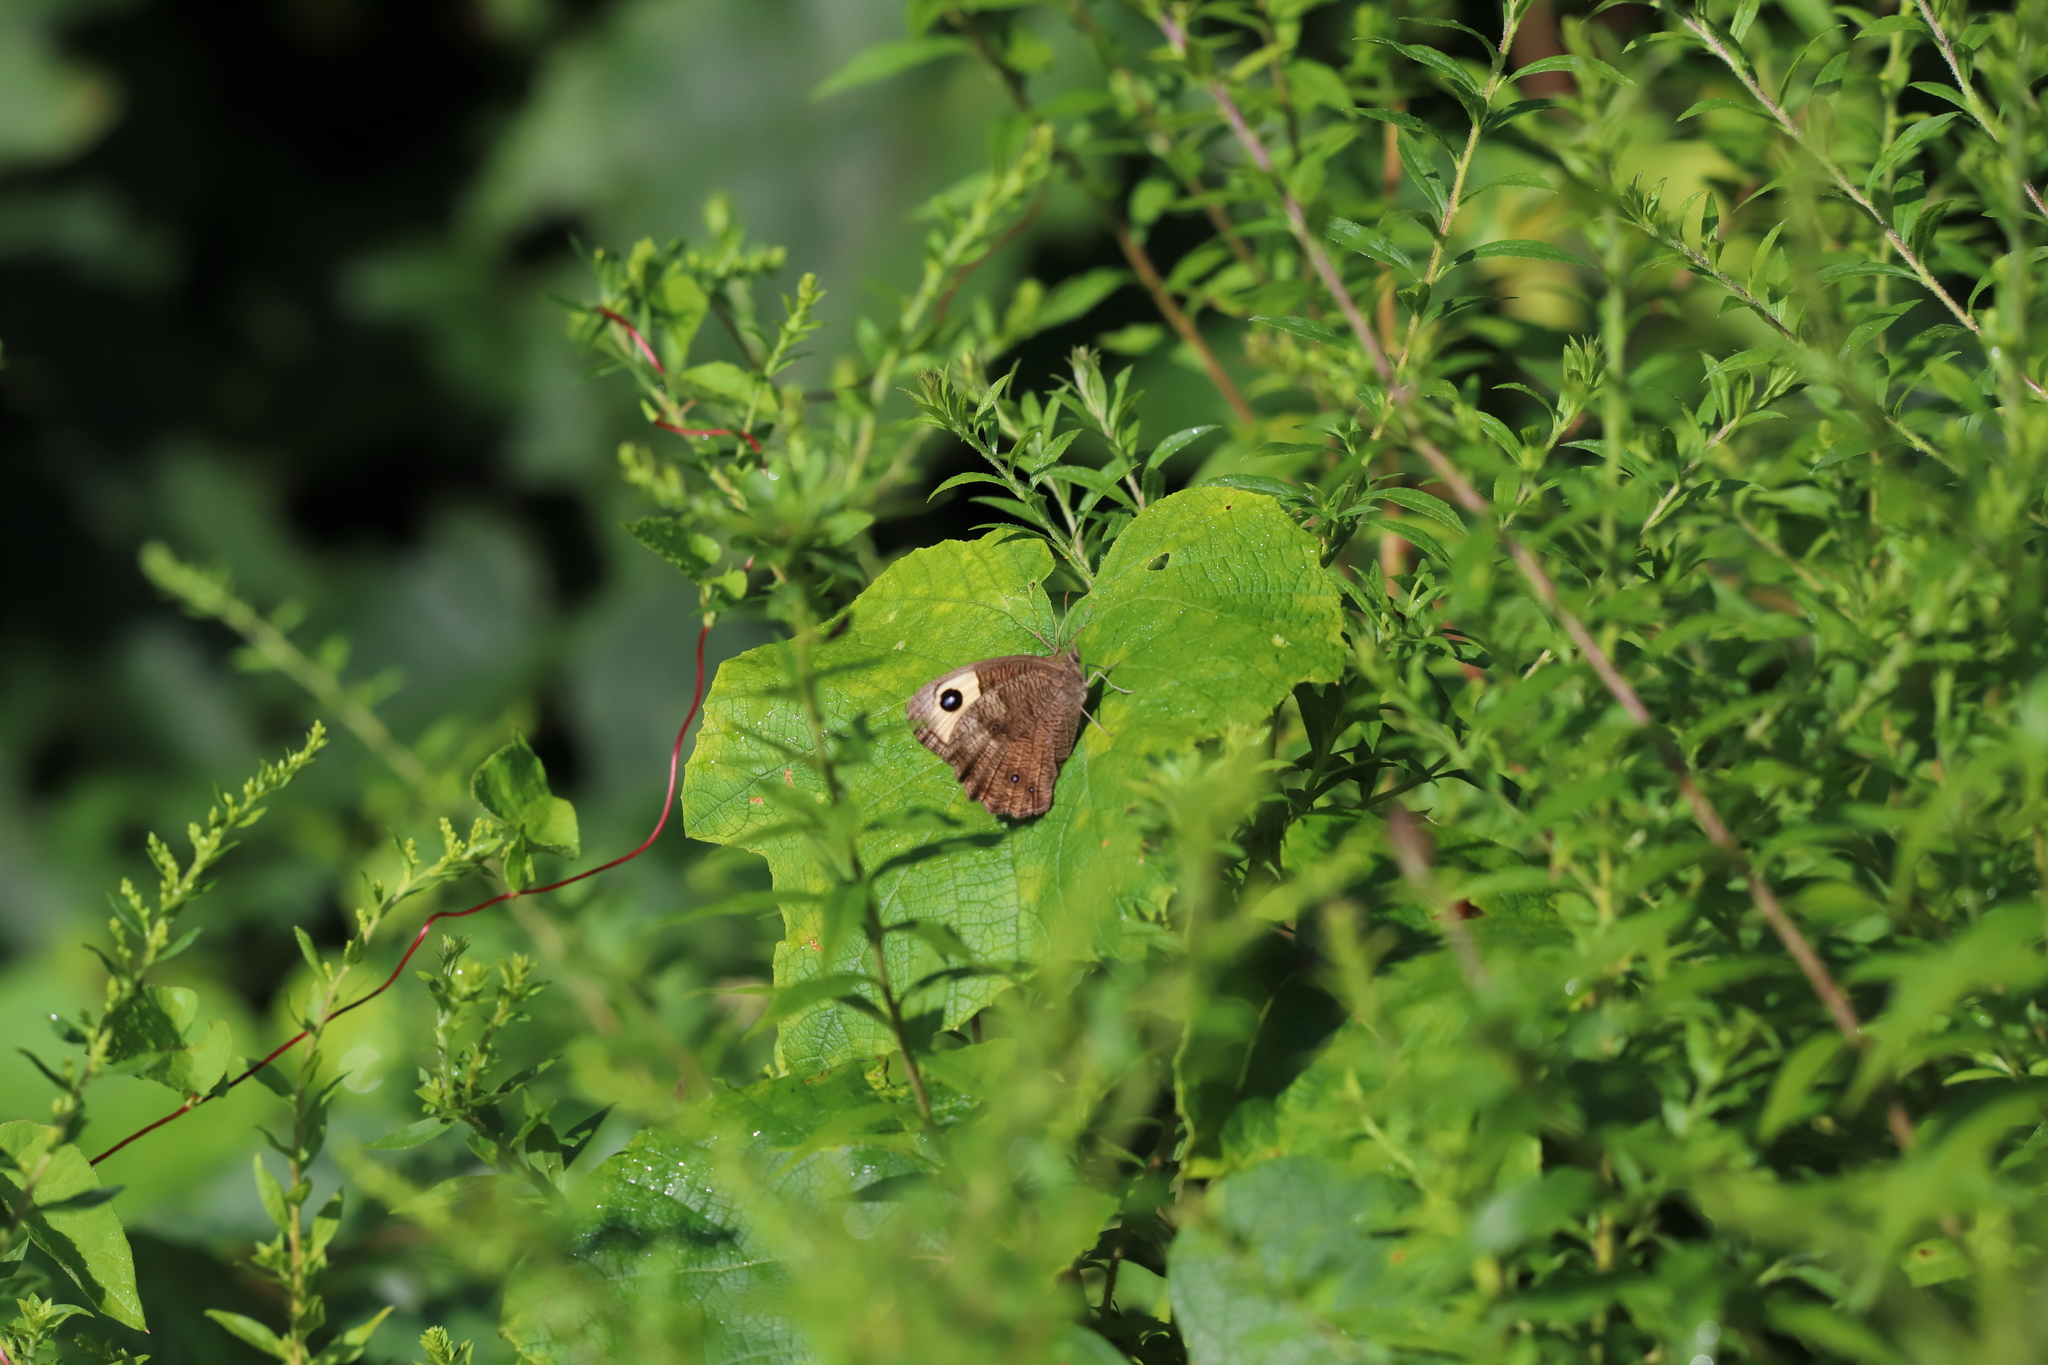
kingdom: Animalia
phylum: Arthropoda
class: Insecta
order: Lepidoptera
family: Nymphalidae
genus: Cercyonis
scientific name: Cercyonis pegala
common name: Common wood-nymph
